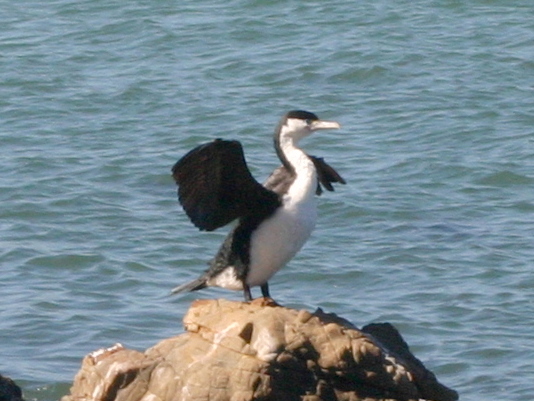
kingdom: Animalia
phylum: Chordata
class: Aves
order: Suliformes
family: Phalacrocoracidae
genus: Phalacrocorax
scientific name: Phalacrocorax varius
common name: Pied cormorant
